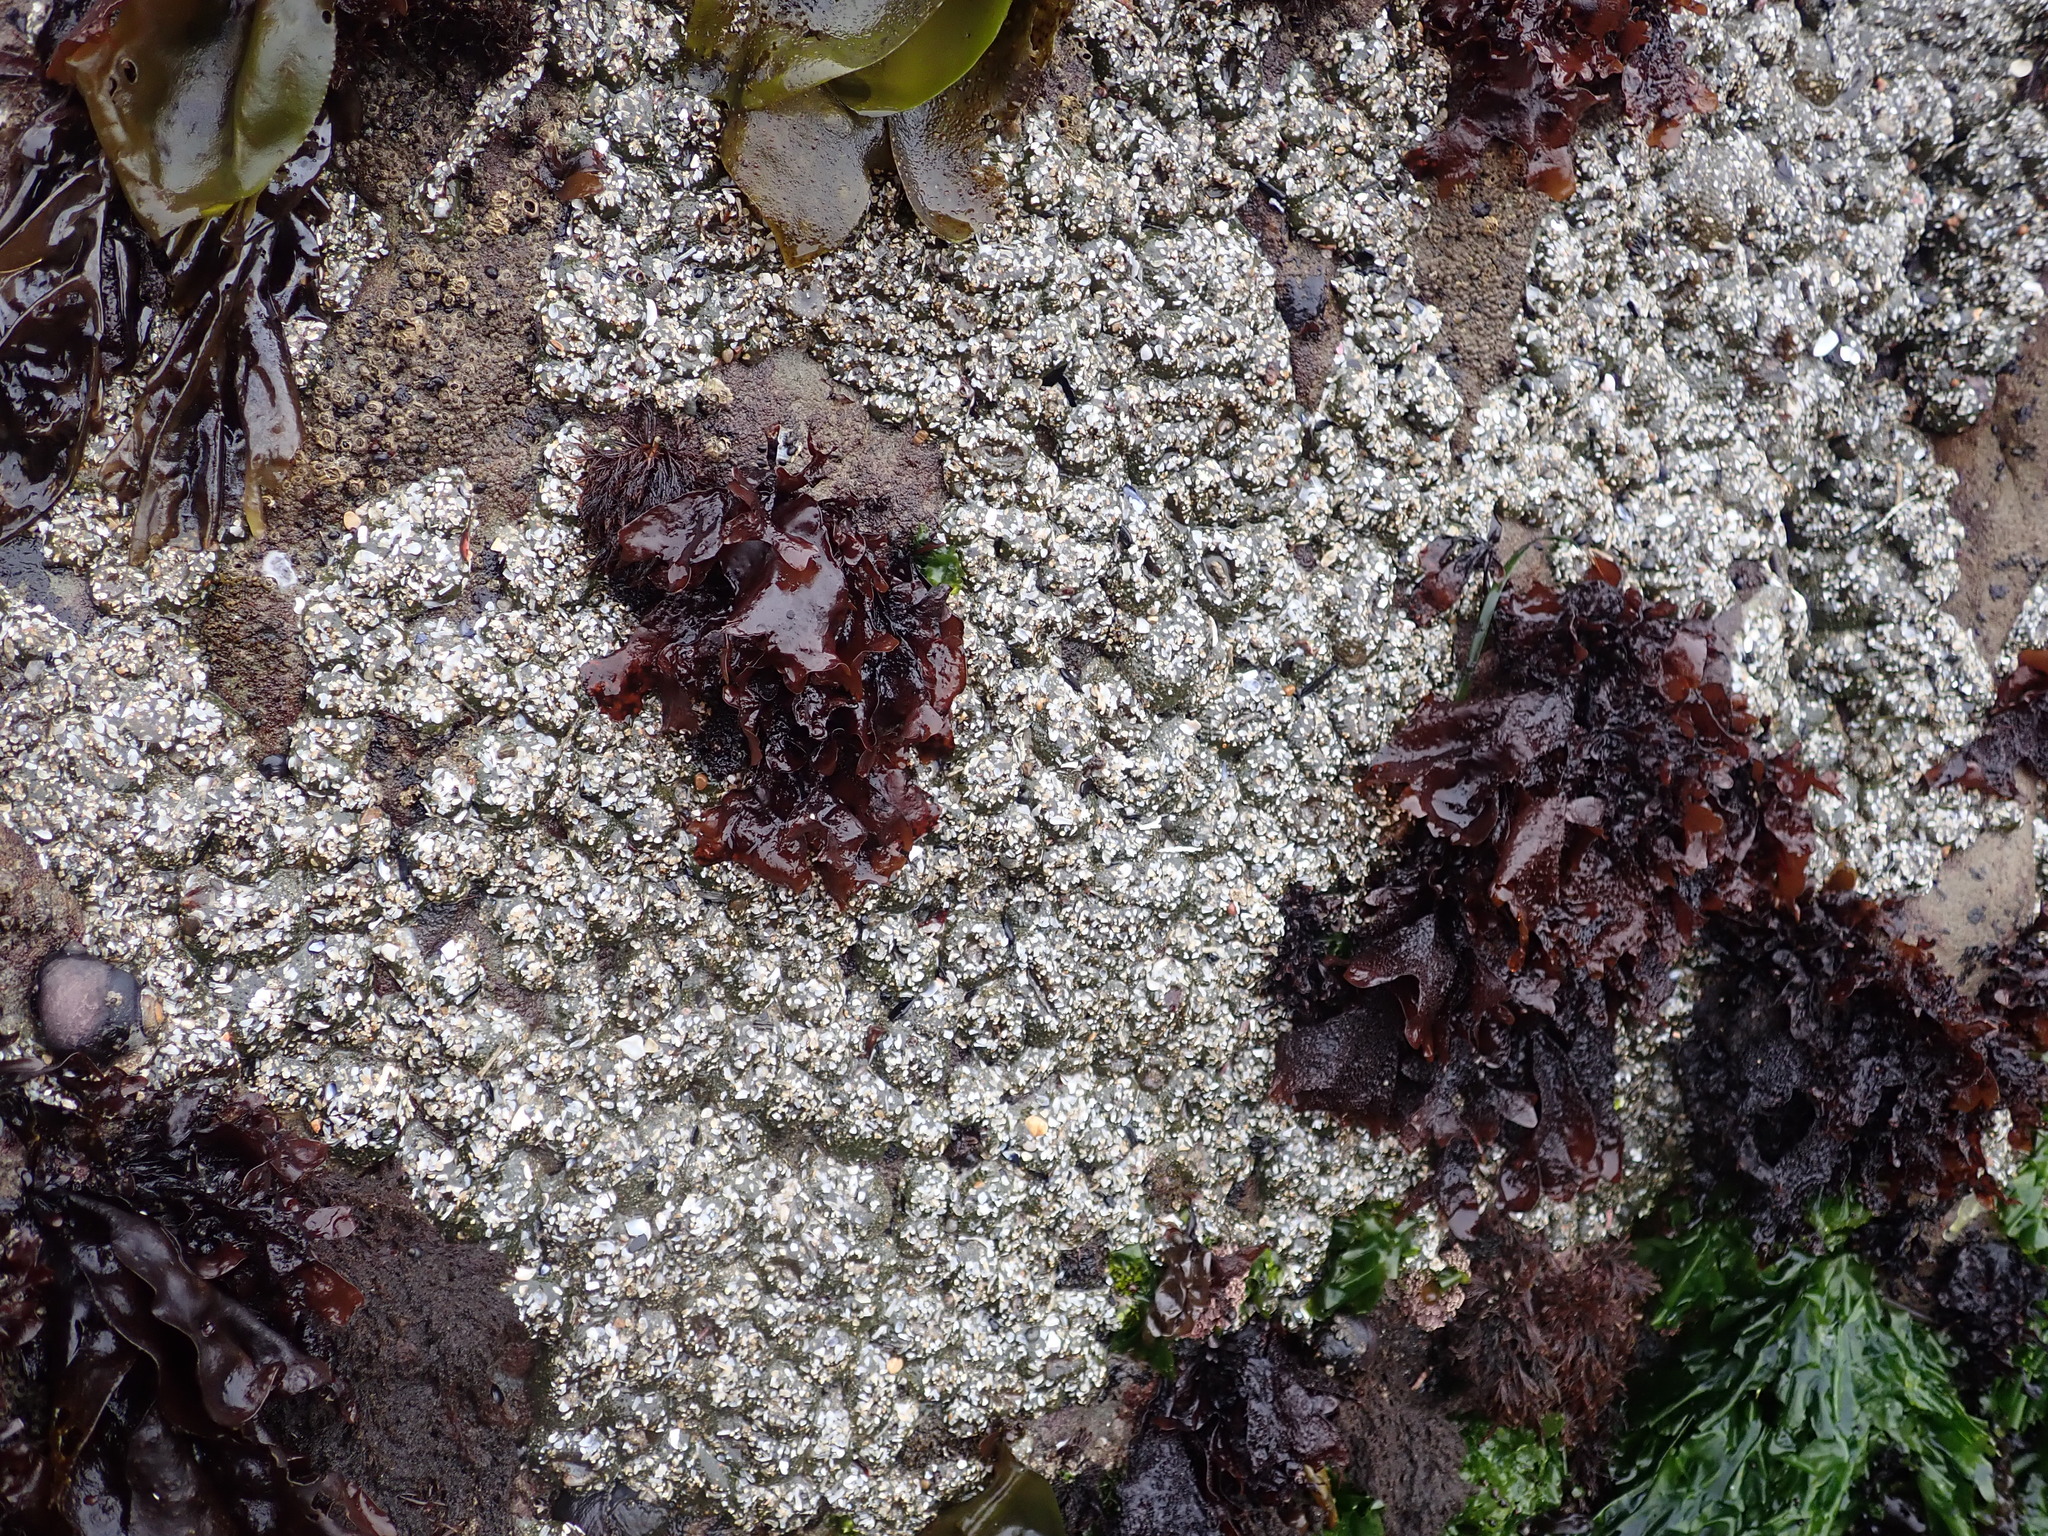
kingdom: Animalia
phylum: Cnidaria
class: Anthozoa
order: Actiniaria
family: Actiniidae
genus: Anthopleura
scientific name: Anthopleura elegantissima
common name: Clonal anemone
